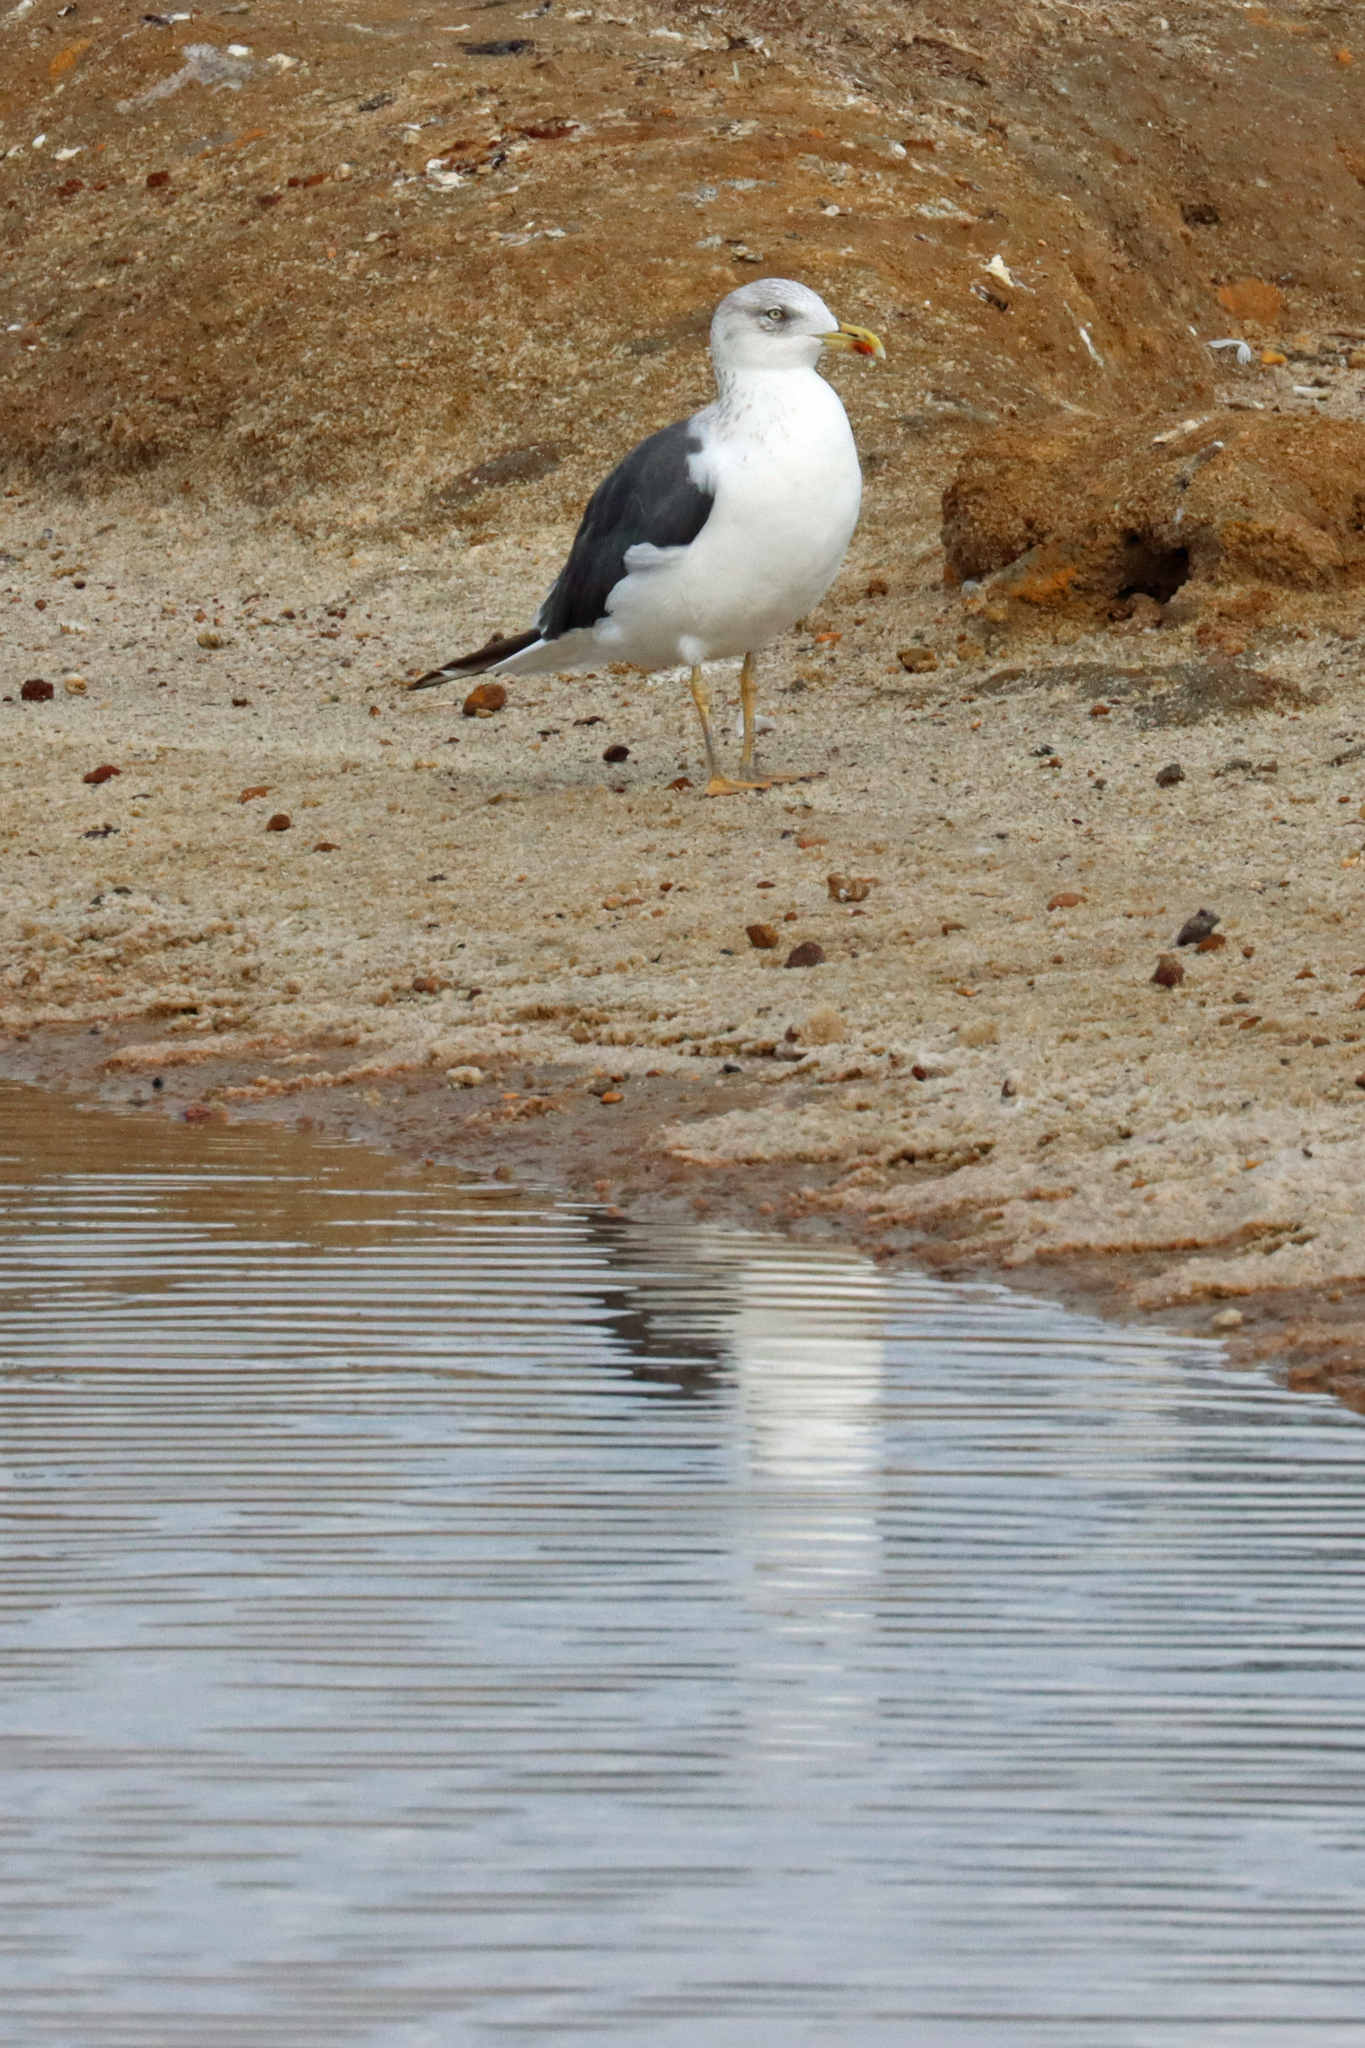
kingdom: Animalia
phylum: Chordata
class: Aves
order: Charadriiformes
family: Laridae
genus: Larus
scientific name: Larus fuscus
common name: Lesser black-backed gull
